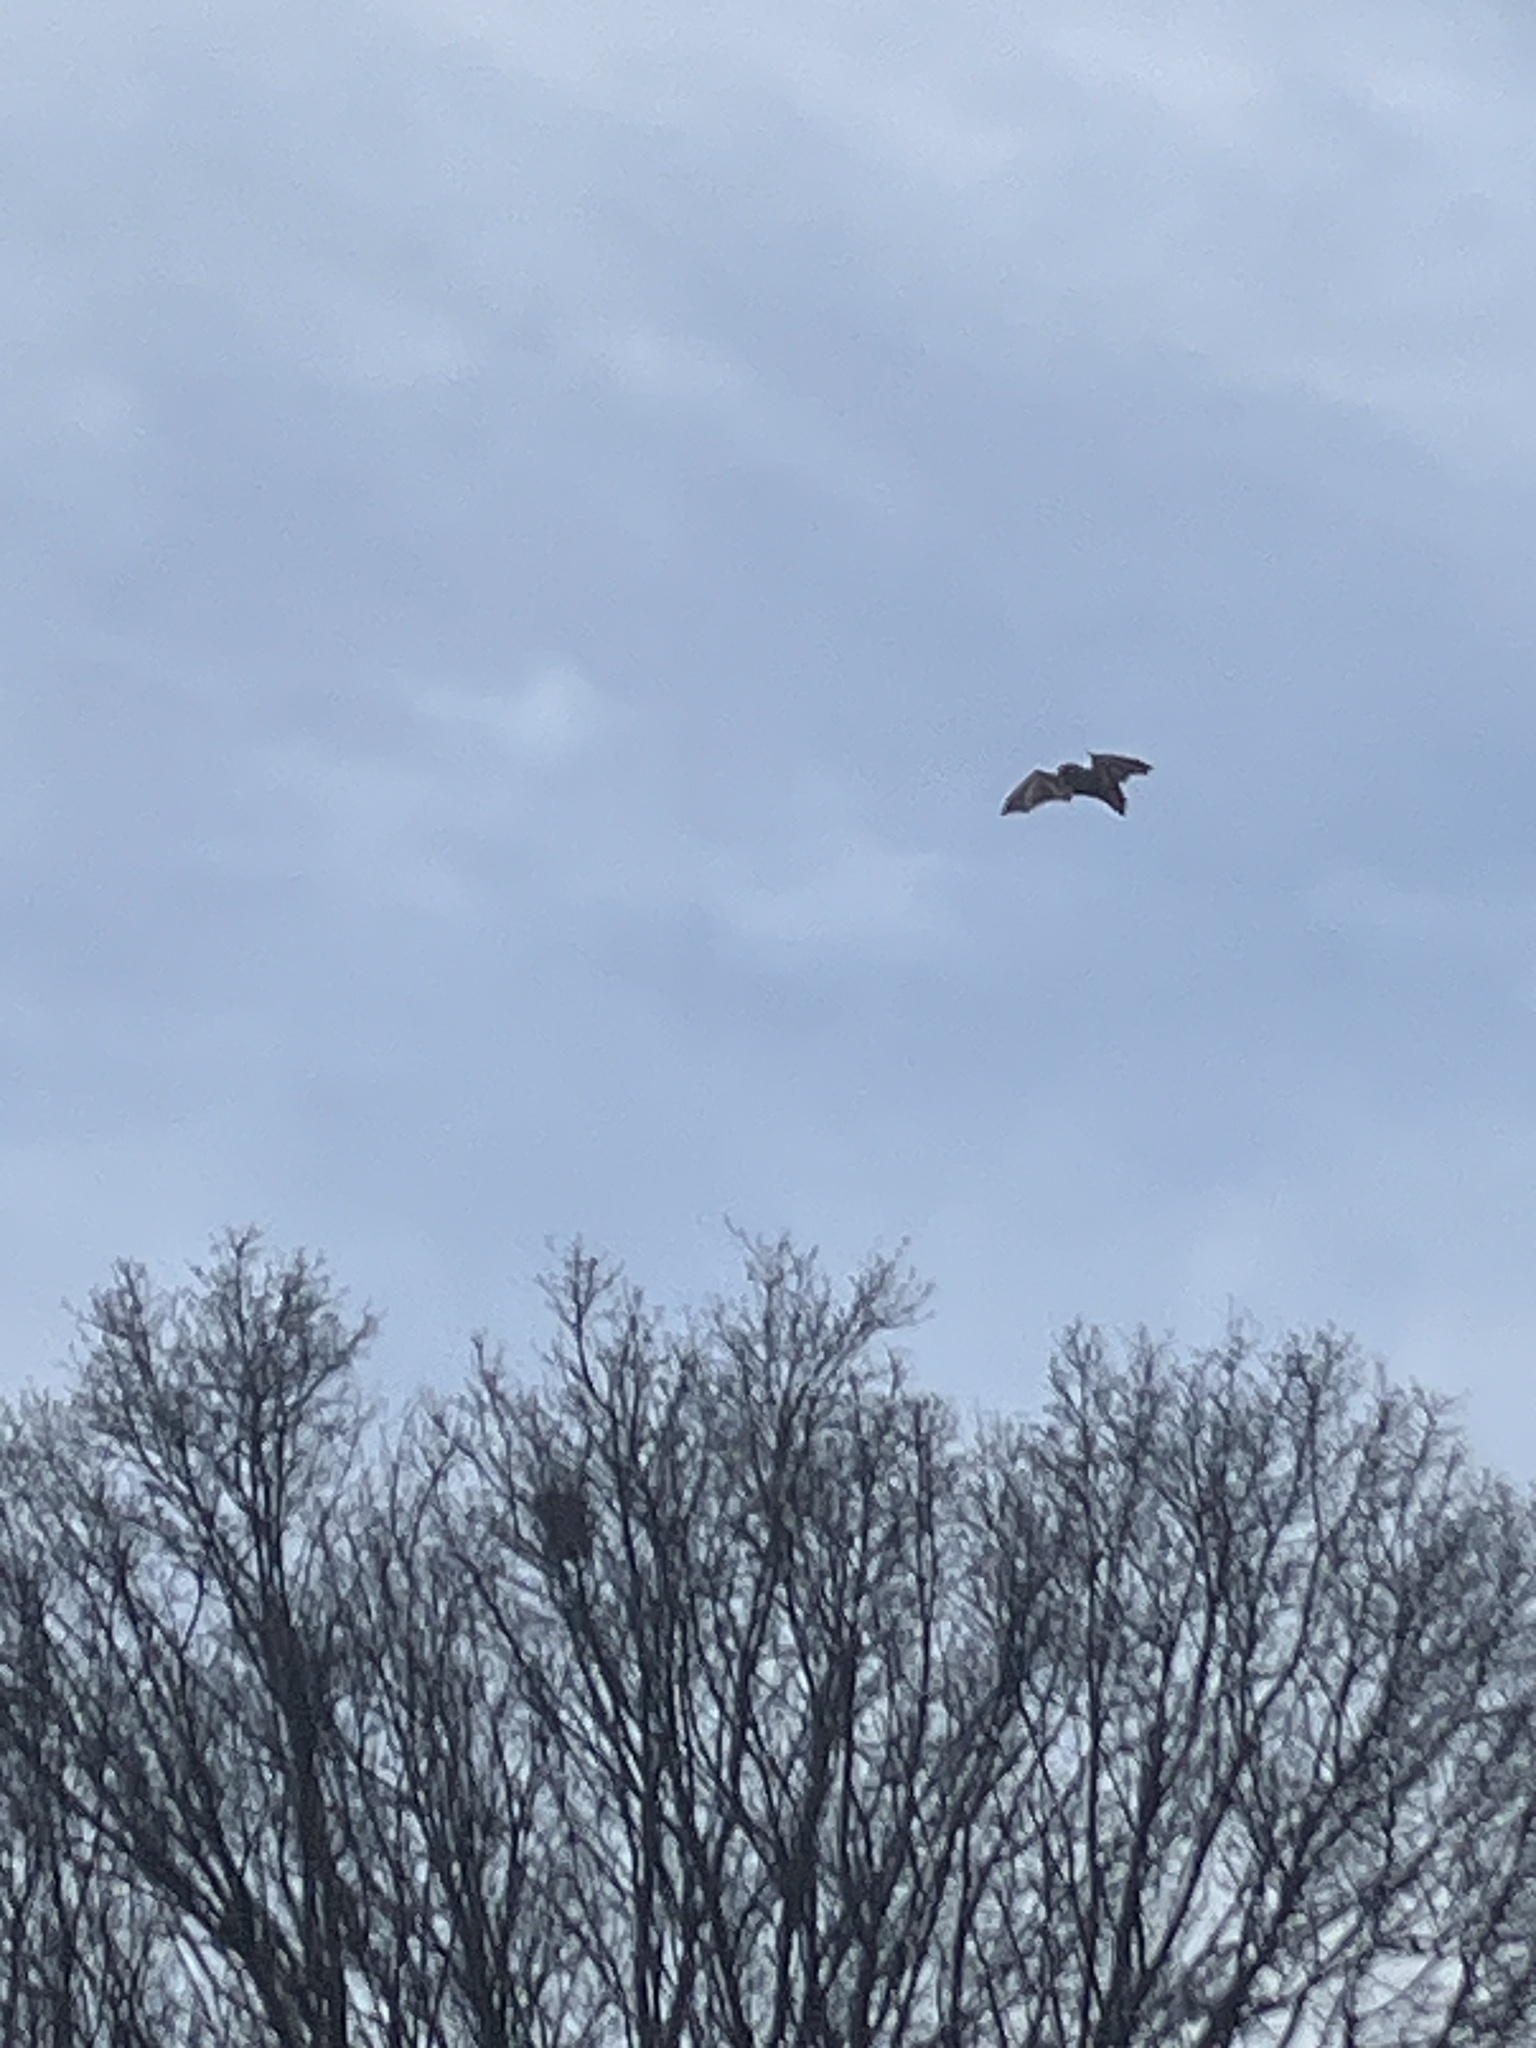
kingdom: Animalia
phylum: Chordata
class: Mammalia
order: Chiroptera
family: Vespertilionidae
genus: Lasiurus
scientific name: Lasiurus borealis
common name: Eastern red bat
